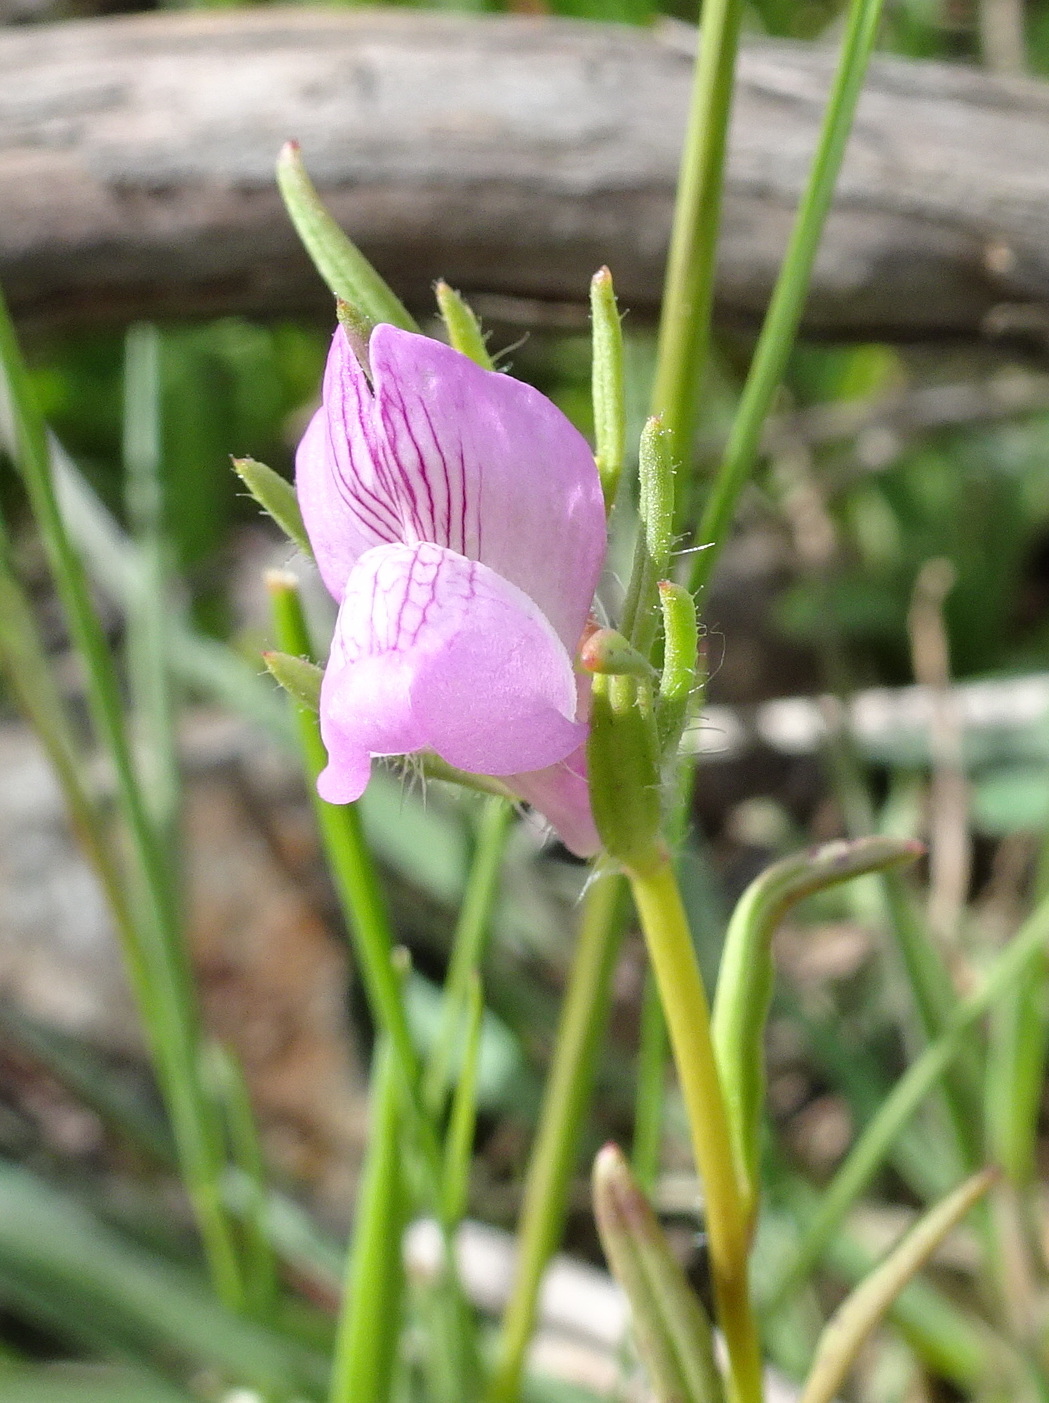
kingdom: Plantae
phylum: Tracheophyta
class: Magnoliopsida
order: Lamiales
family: Plantaginaceae
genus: Misopates
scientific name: Misopates orontium
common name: Weasel's-snout
